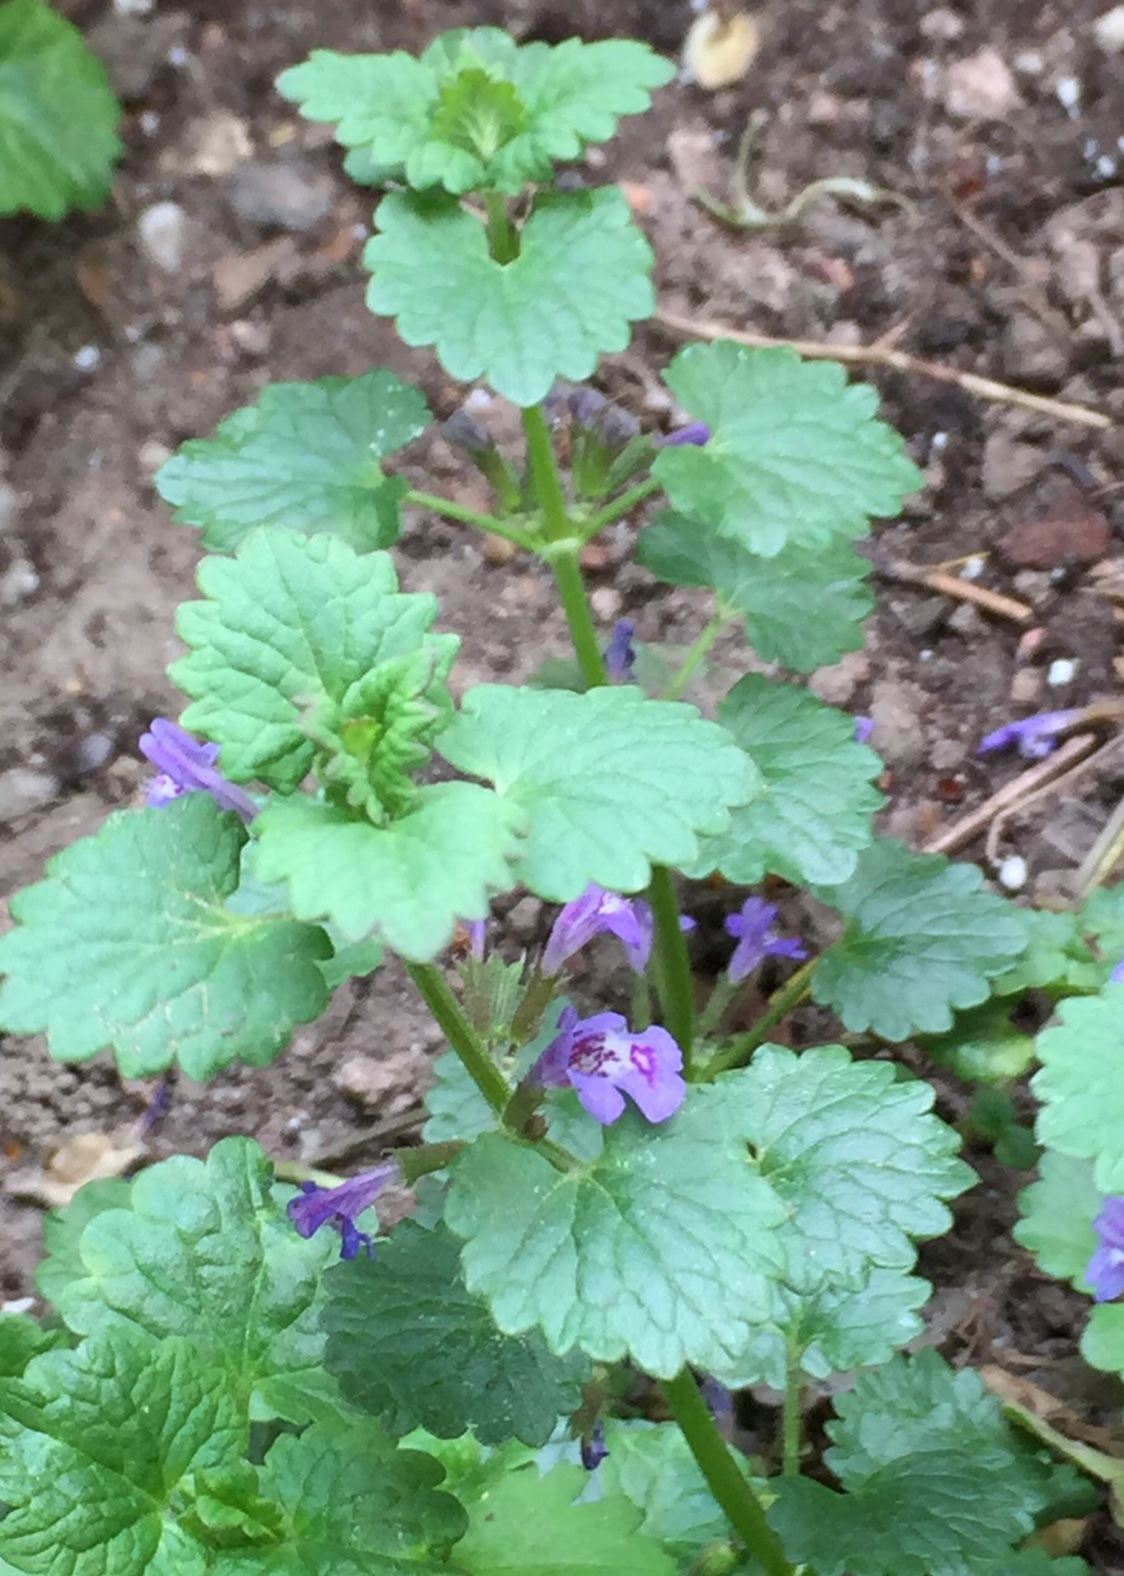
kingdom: Plantae
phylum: Tracheophyta
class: Magnoliopsida
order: Lamiales
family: Lamiaceae
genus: Glechoma
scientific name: Glechoma hederacea
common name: Ground ivy
